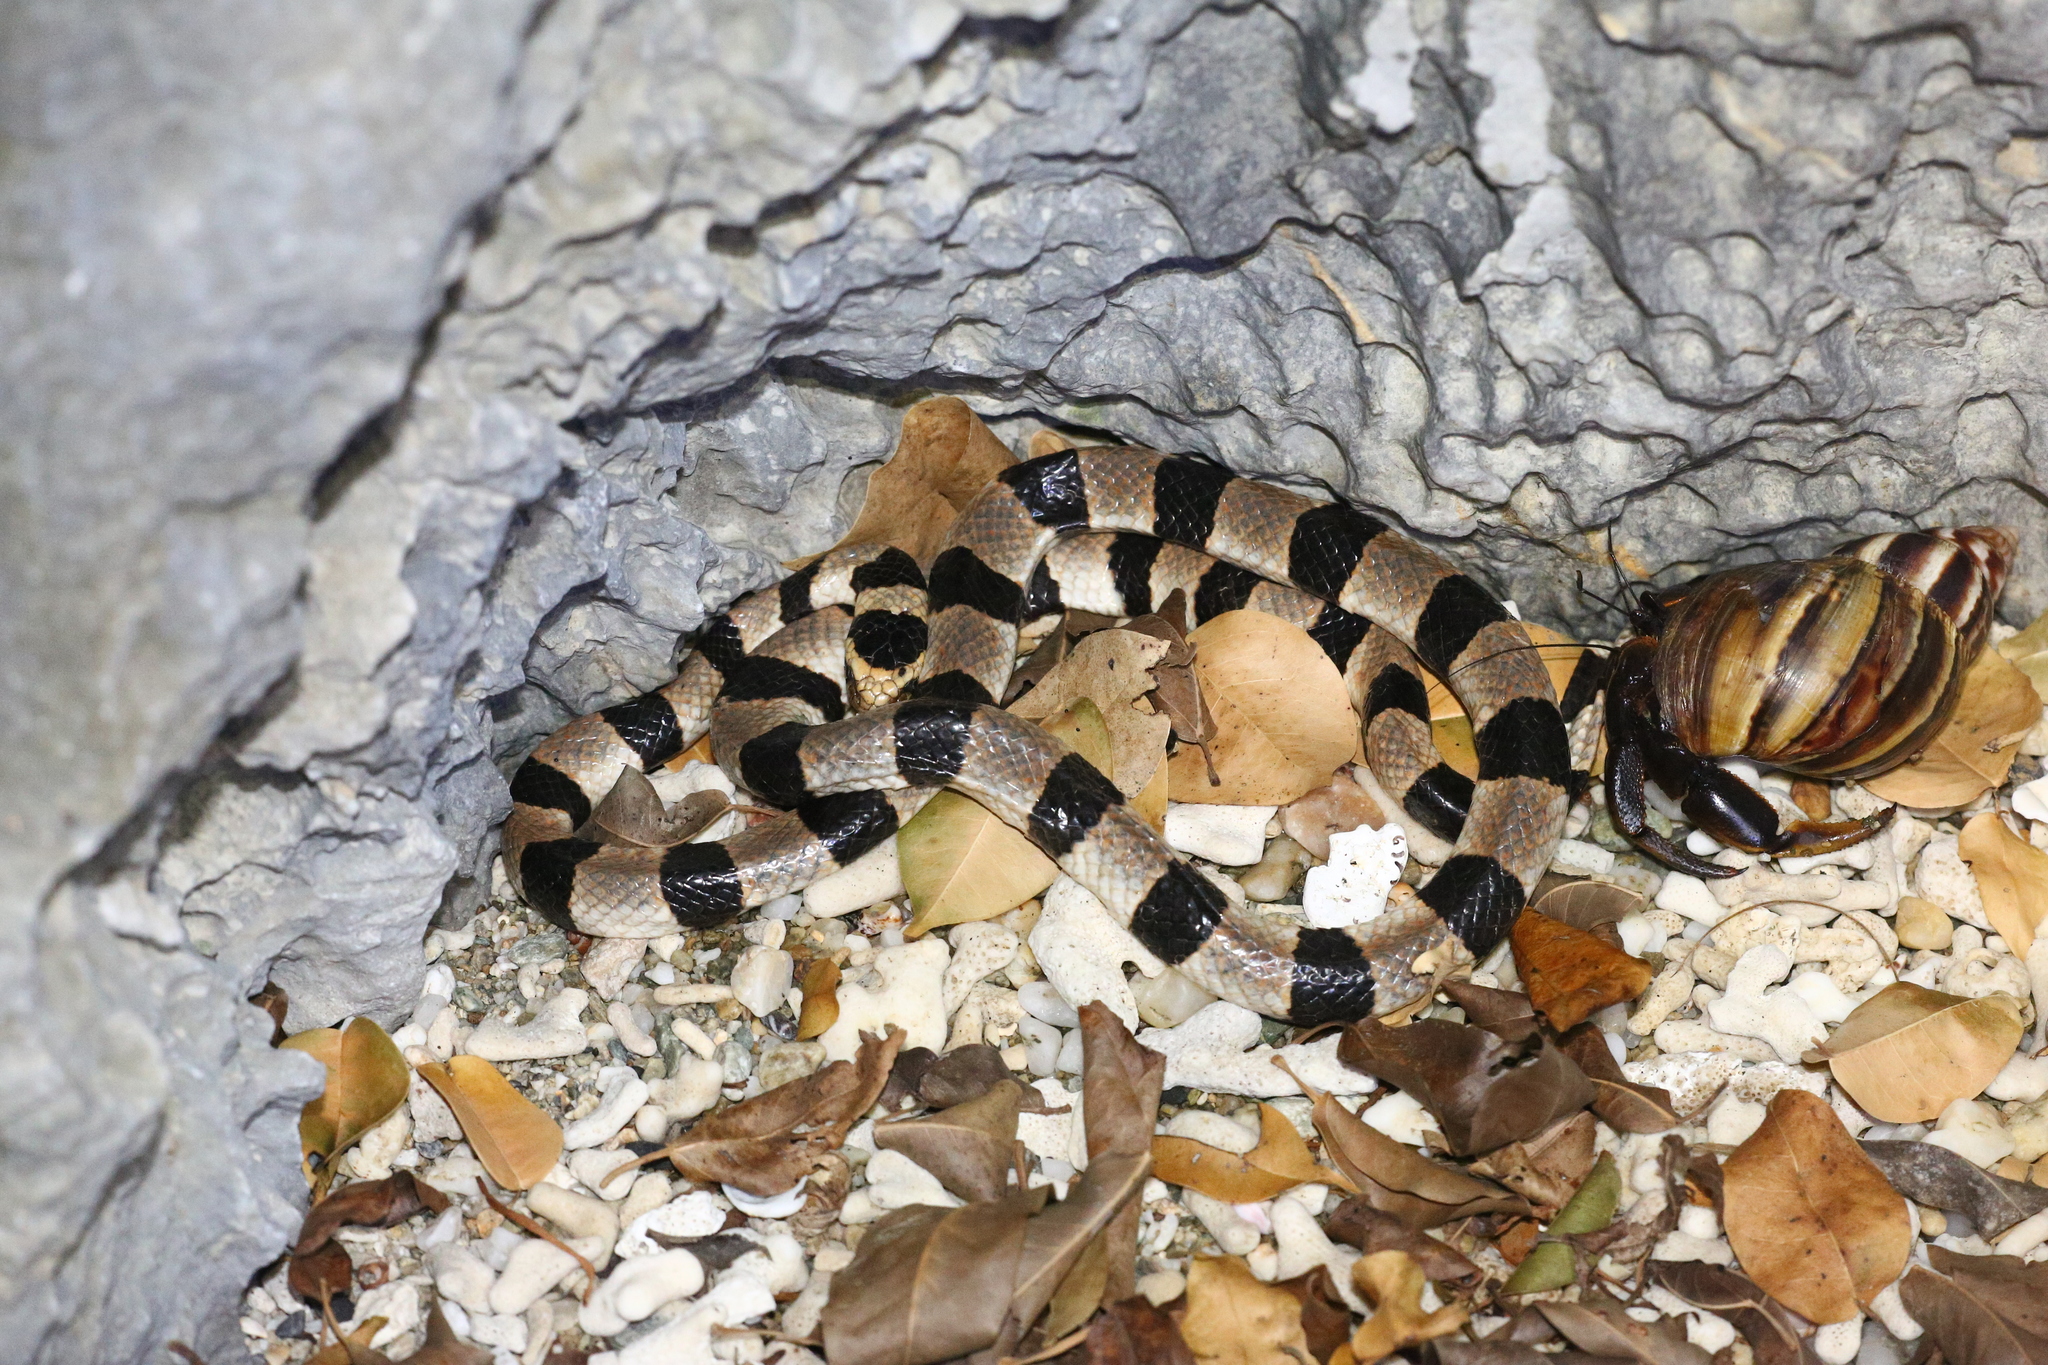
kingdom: Animalia
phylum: Chordata
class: Squamata
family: Elapidae
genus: Laticauda
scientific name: Laticauda saintgironsi
